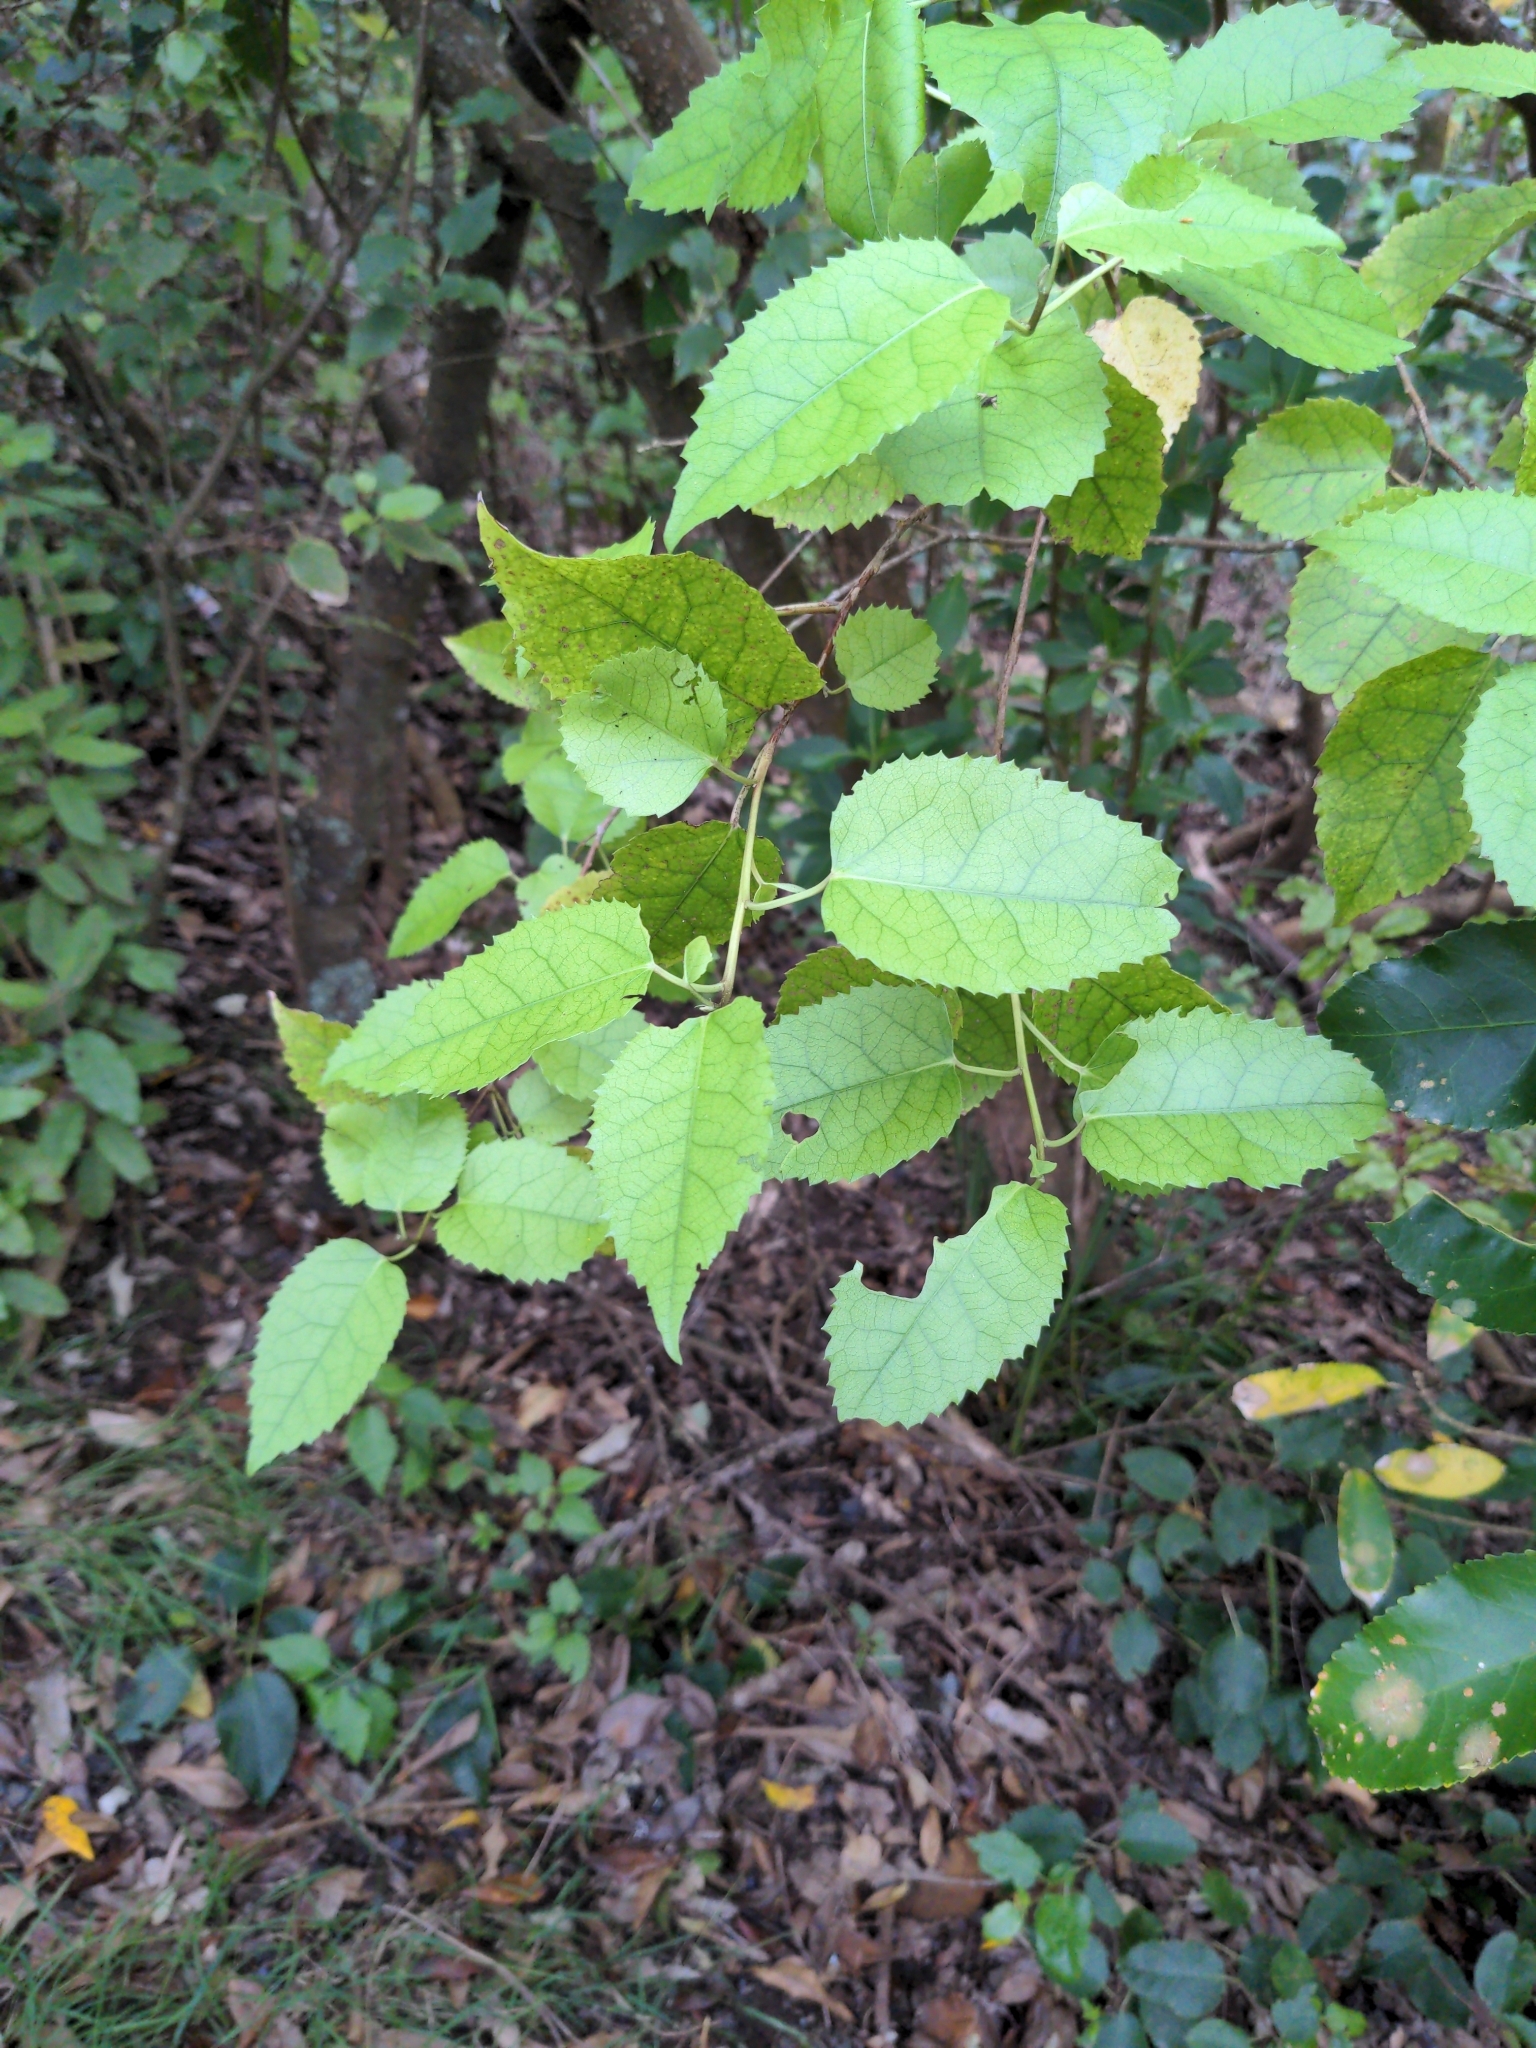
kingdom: Plantae
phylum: Tracheophyta
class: Magnoliopsida
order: Malvales
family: Malvaceae
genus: Hoheria
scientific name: Hoheria populnea
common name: Lacebark
